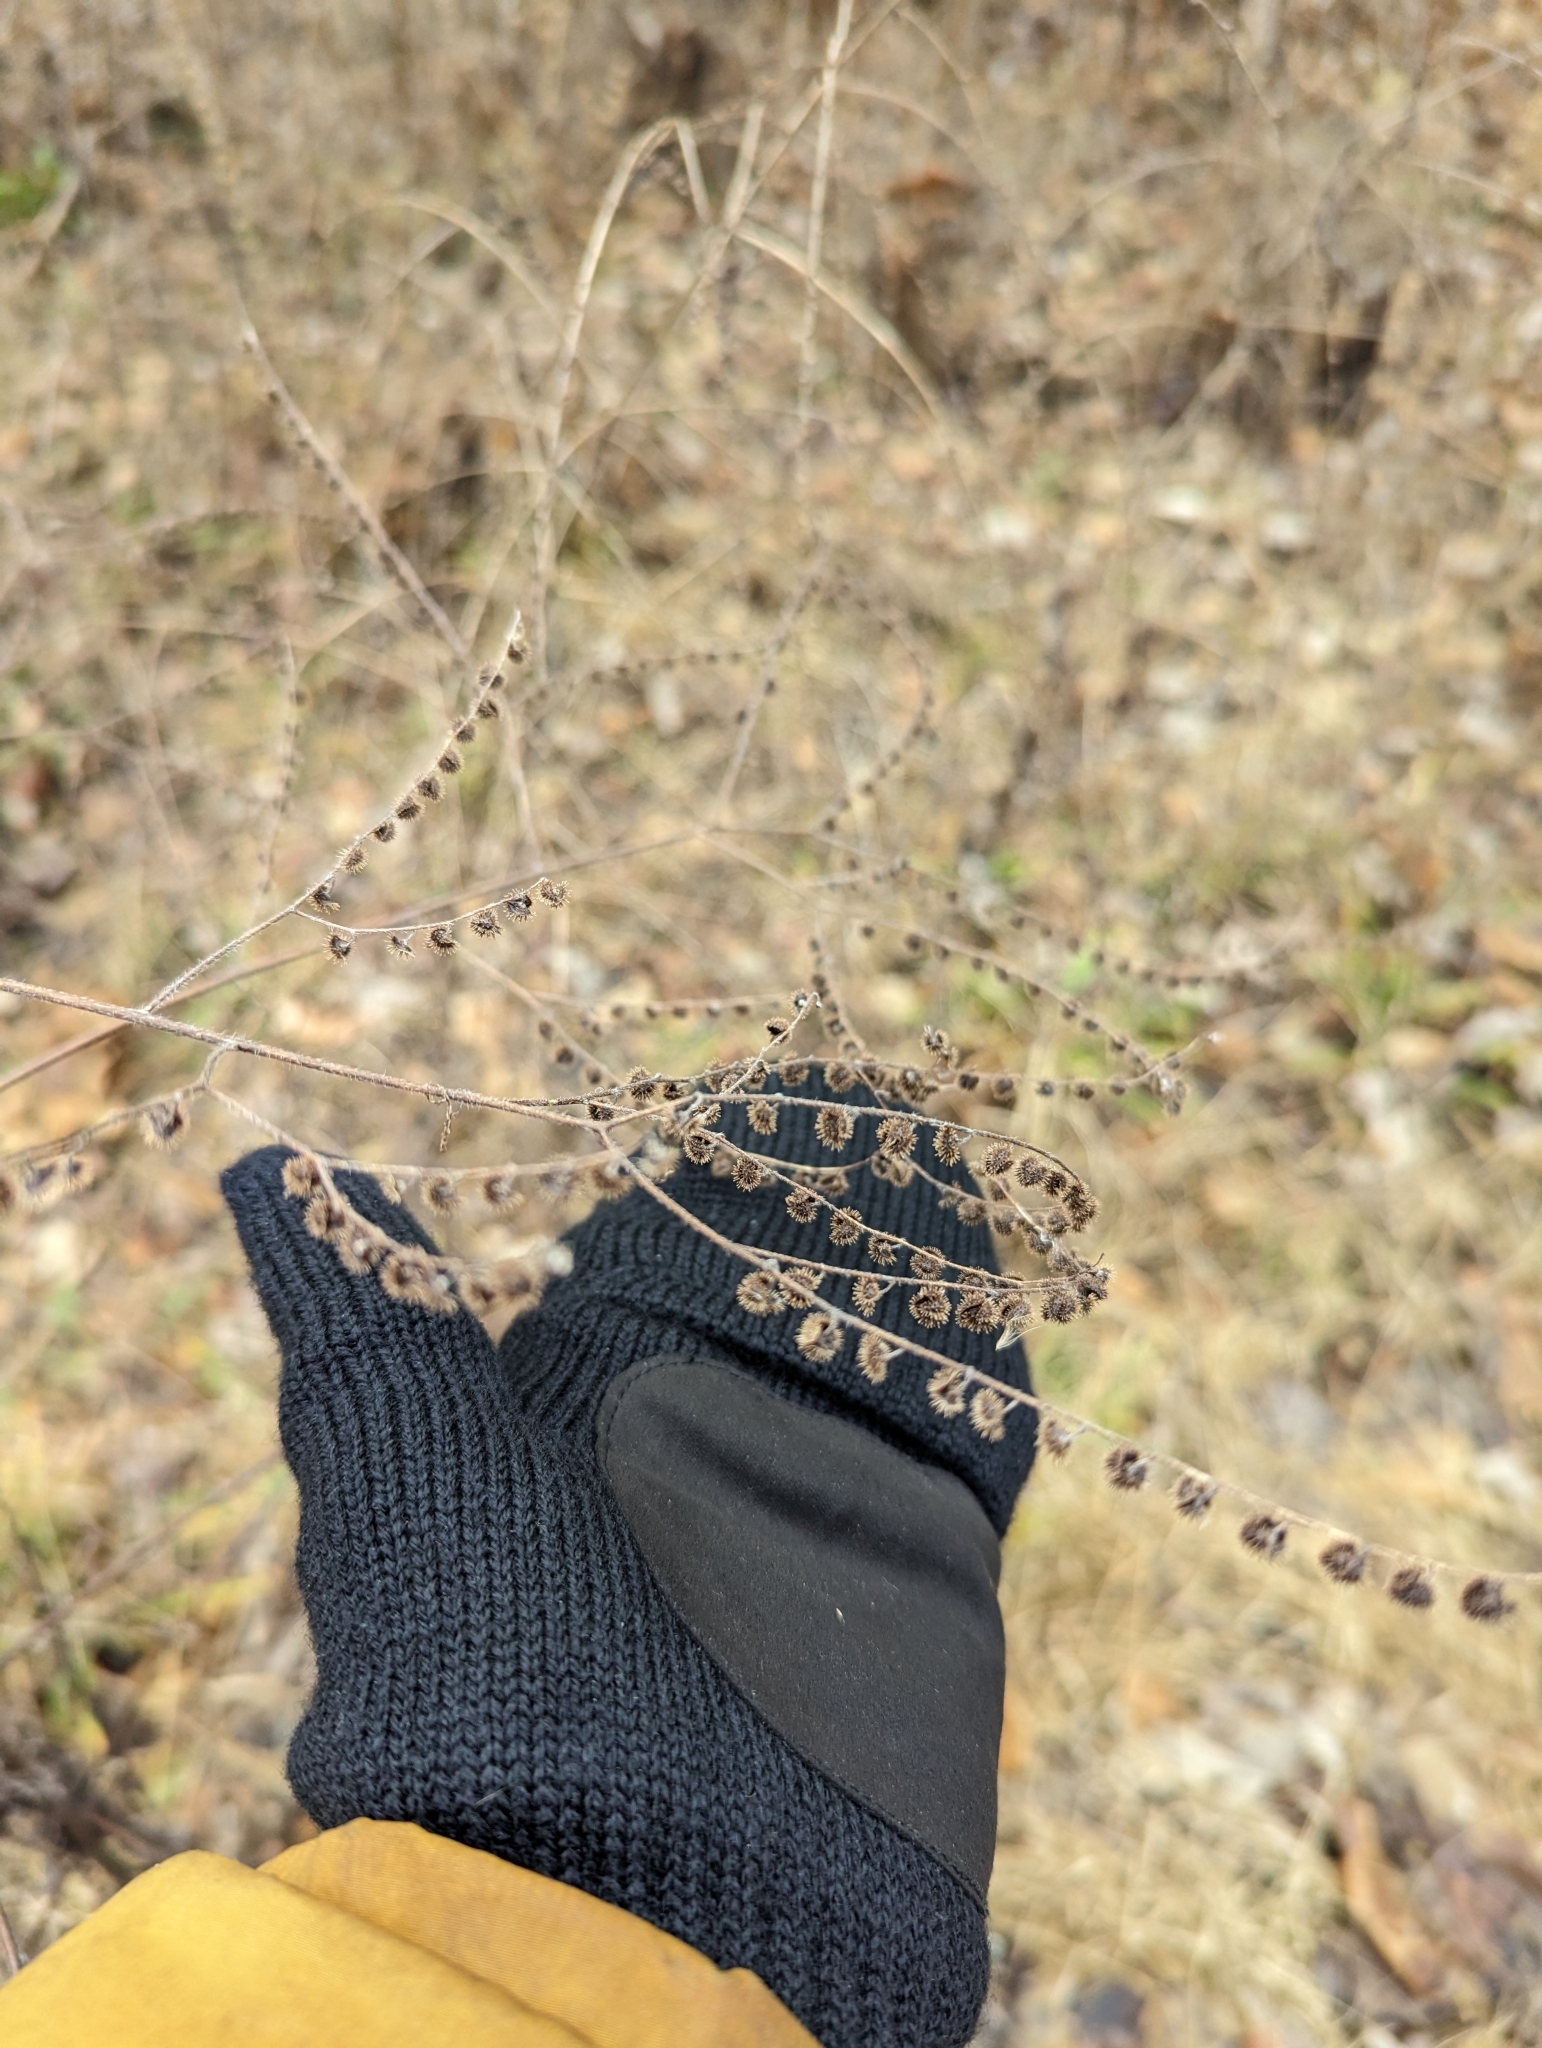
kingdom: Plantae
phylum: Tracheophyta
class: Magnoliopsida
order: Boraginales
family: Boraginaceae
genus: Hackelia
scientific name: Hackelia virginiana
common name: Beggar's-lice
